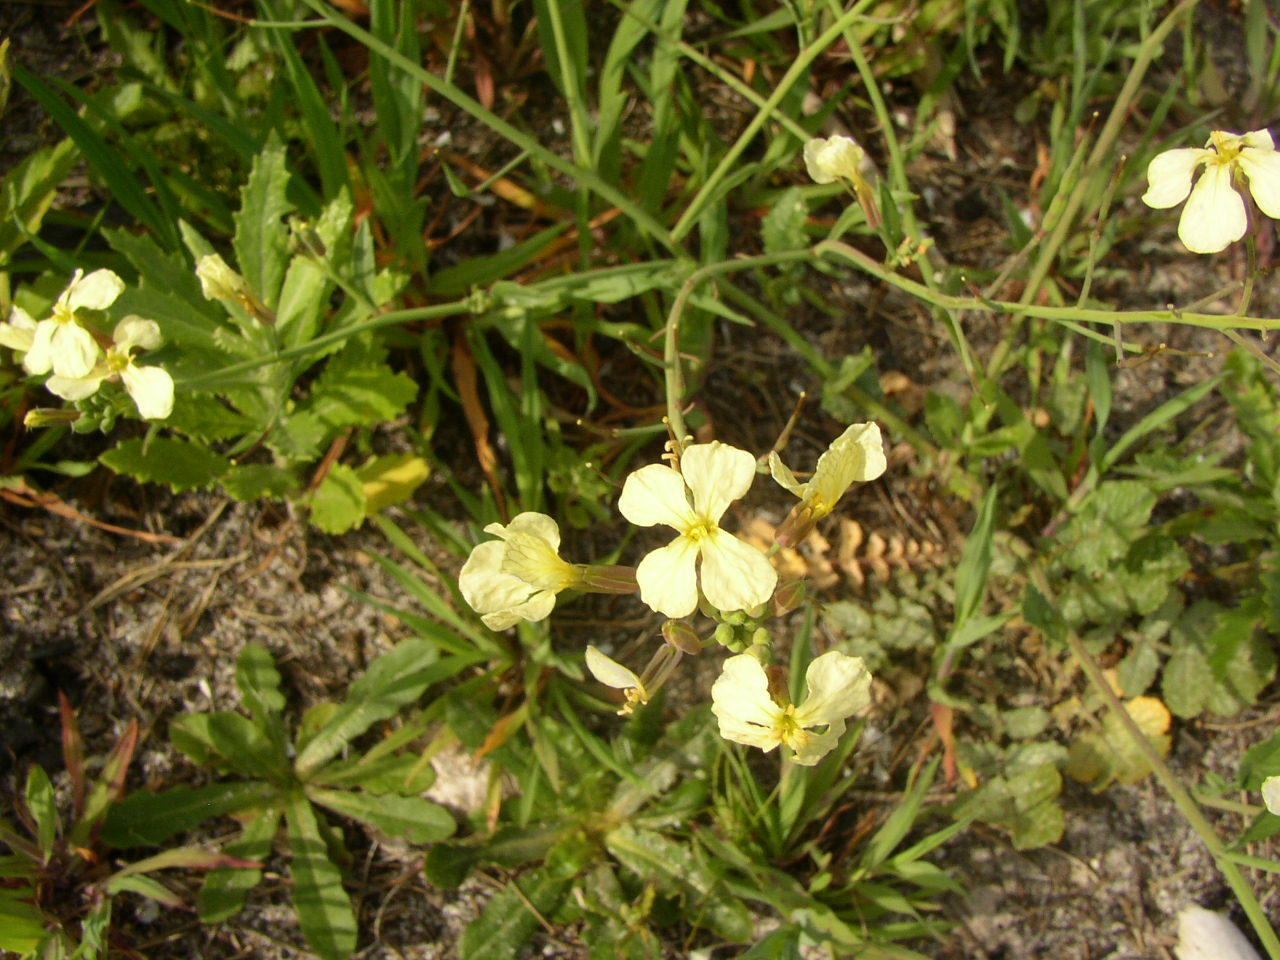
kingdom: Plantae
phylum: Tracheophyta
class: Magnoliopsida
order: Brassicales
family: Brassicaceae
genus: Raphanus
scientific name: Raphanus raphanistrum
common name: Wild radish
